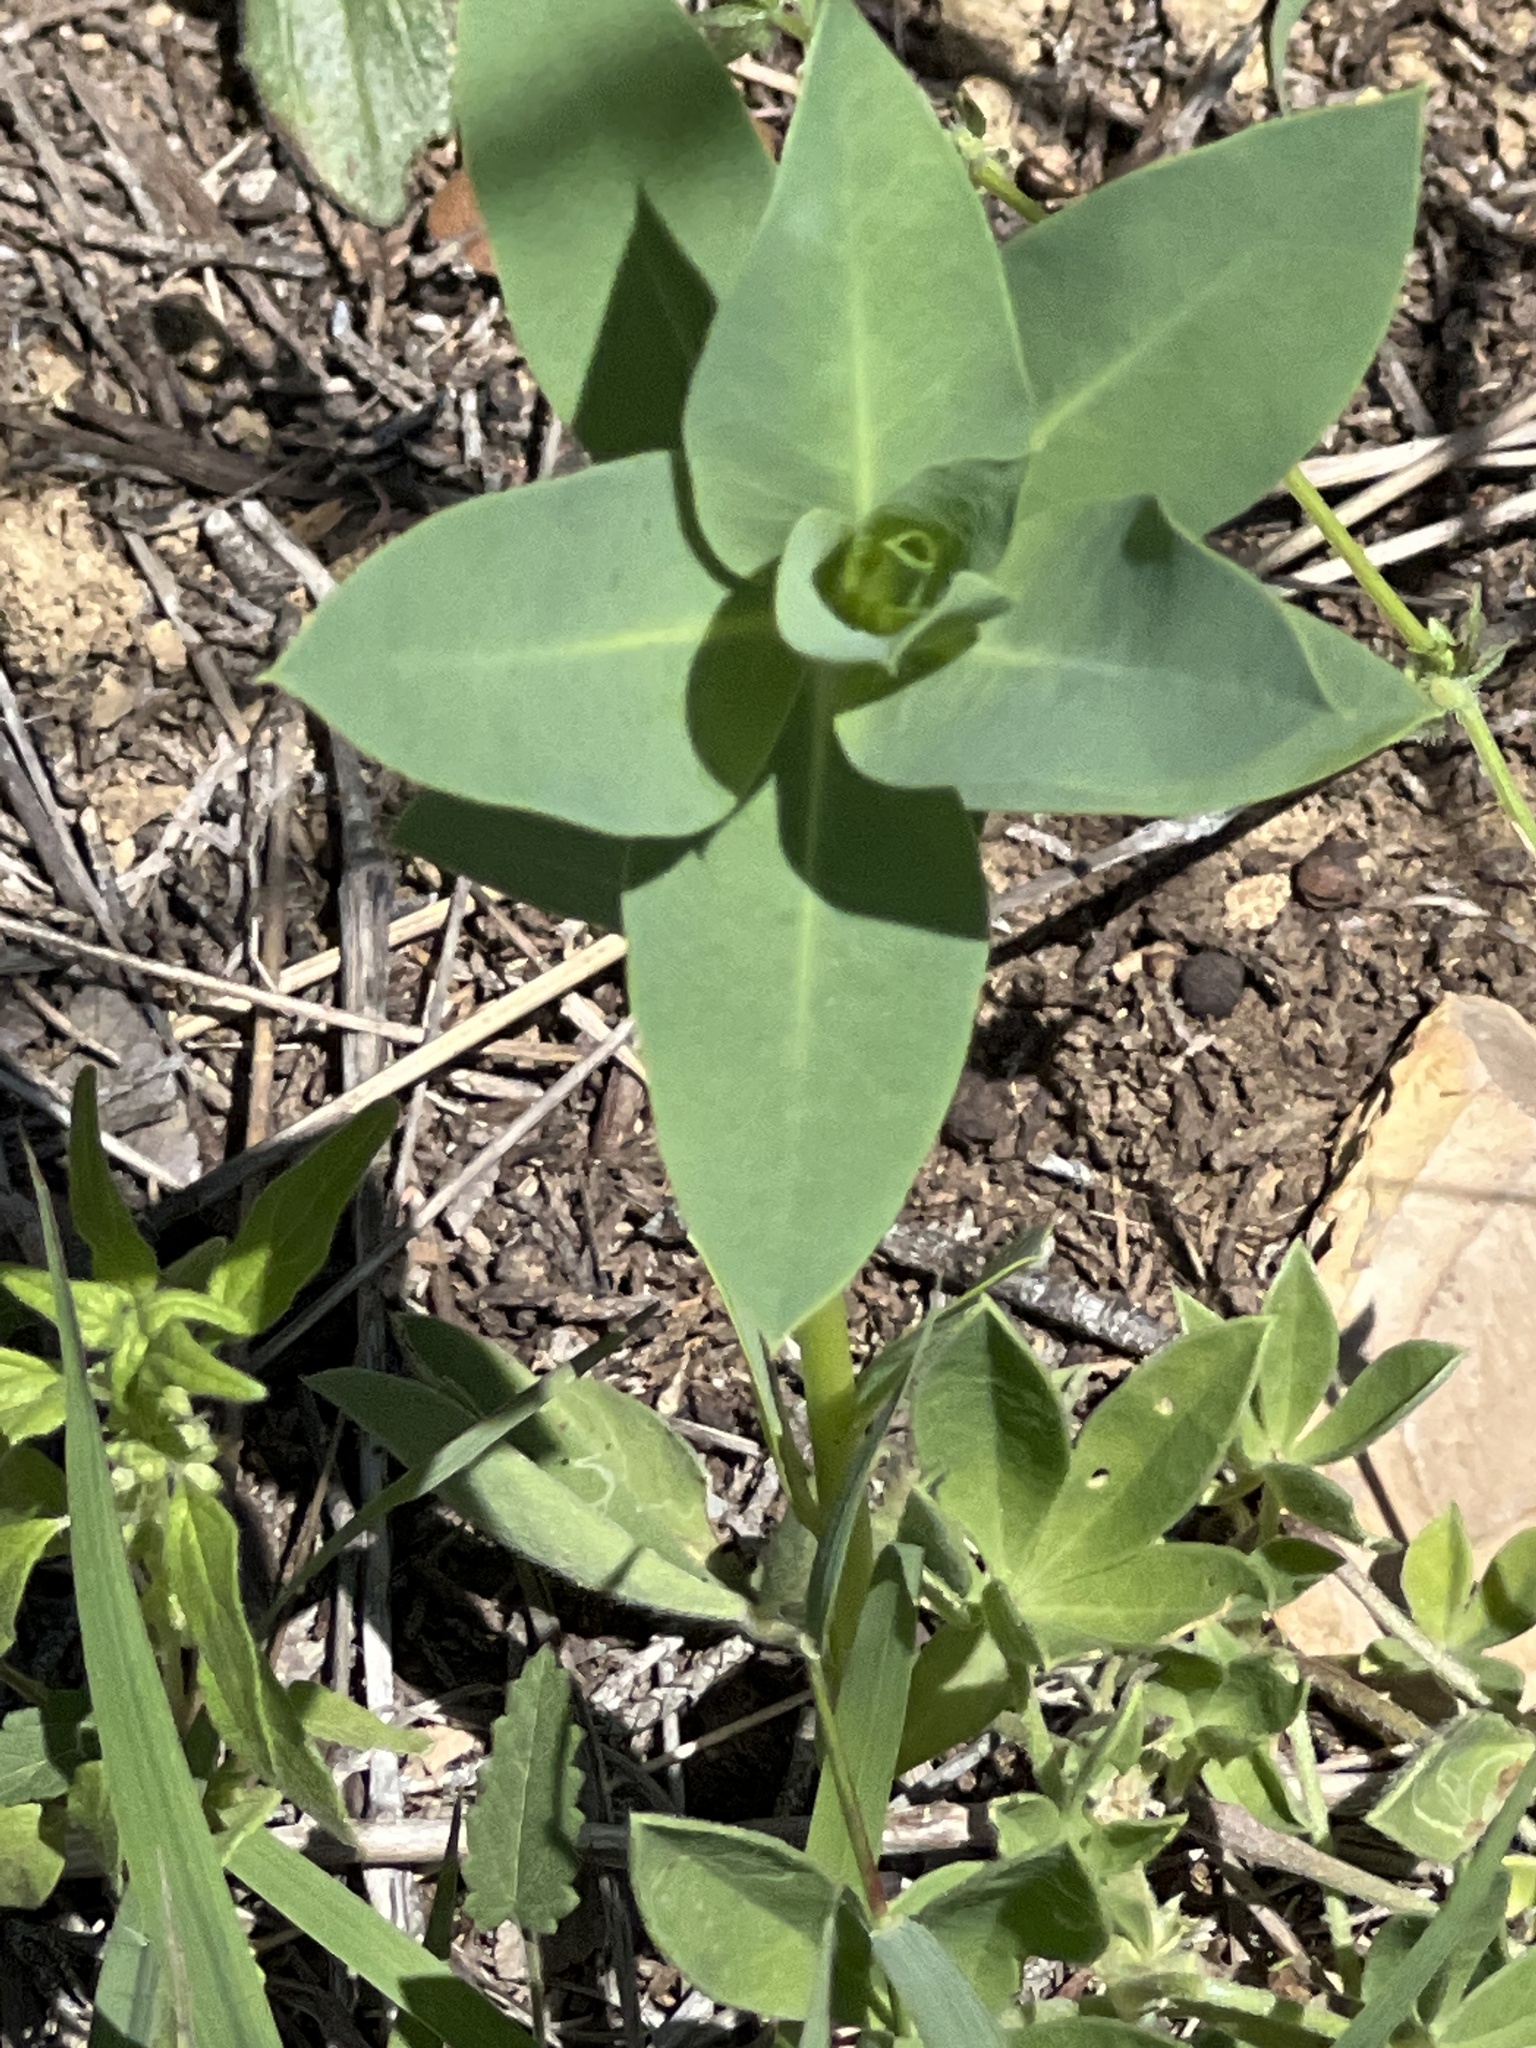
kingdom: Plantae
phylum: Tracheophyta
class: Magnoliopsida
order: Malpighiales
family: Euphorbiaceae
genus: Euphorbia
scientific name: Euphorbia marginata
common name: Ghostweed
